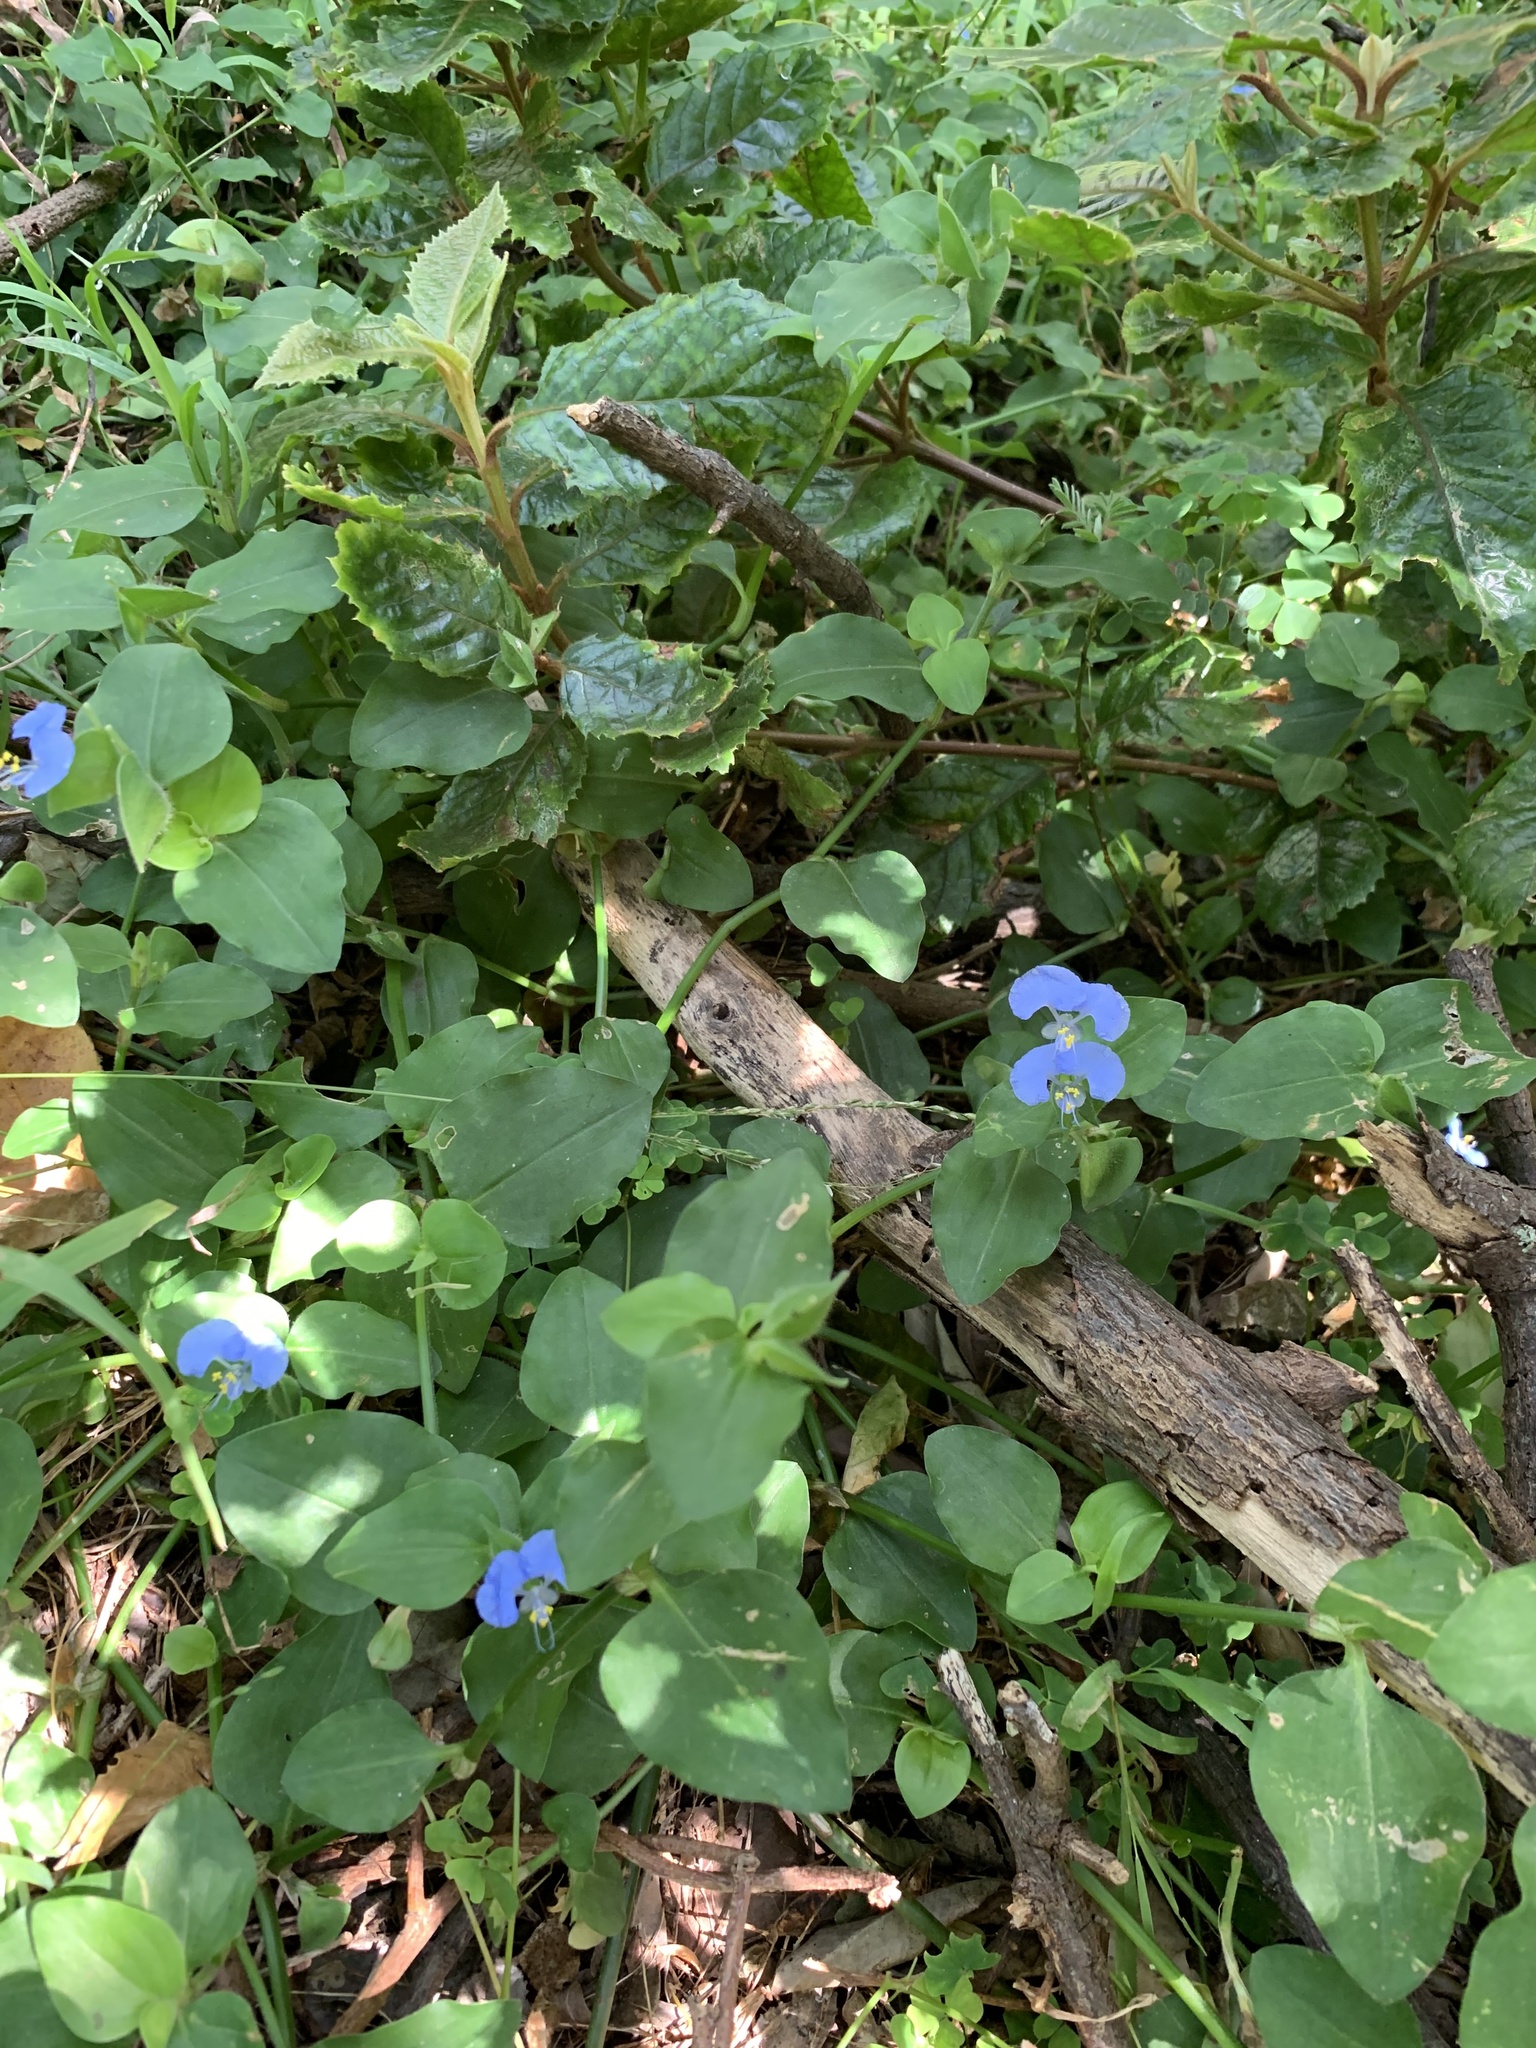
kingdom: Plantae
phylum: Tracheophyta
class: Liliopsida
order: Commelinales
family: Commelinaceae
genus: Commelina
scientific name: Commelina benghalensis
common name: Jio
